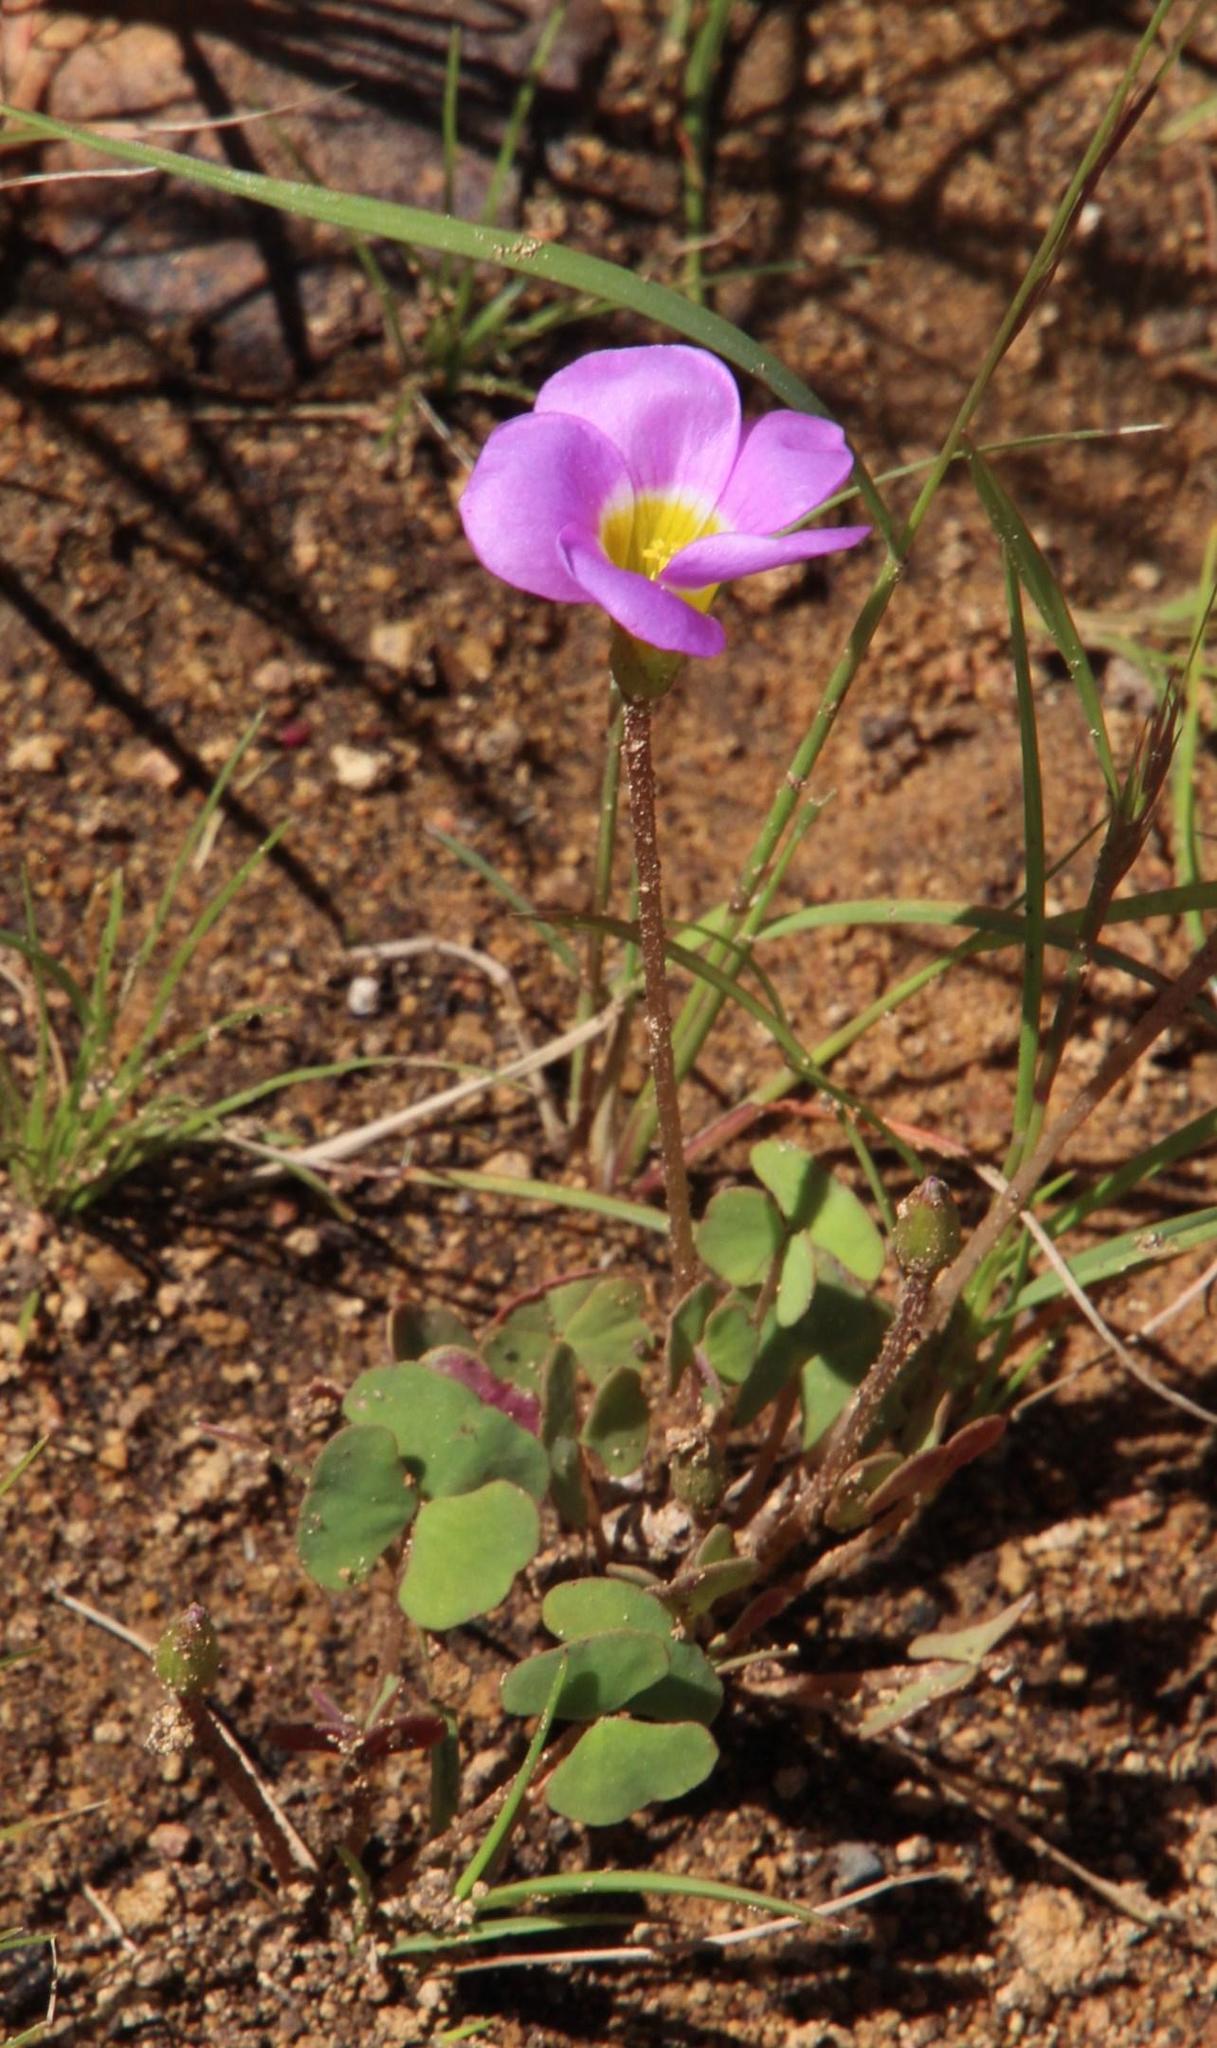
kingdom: Plantae
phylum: Tracheophyta
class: Magnoliopsida
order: Oxalidales
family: Oxalidaceae
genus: Oxalis
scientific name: Oxalis obliquifolia
